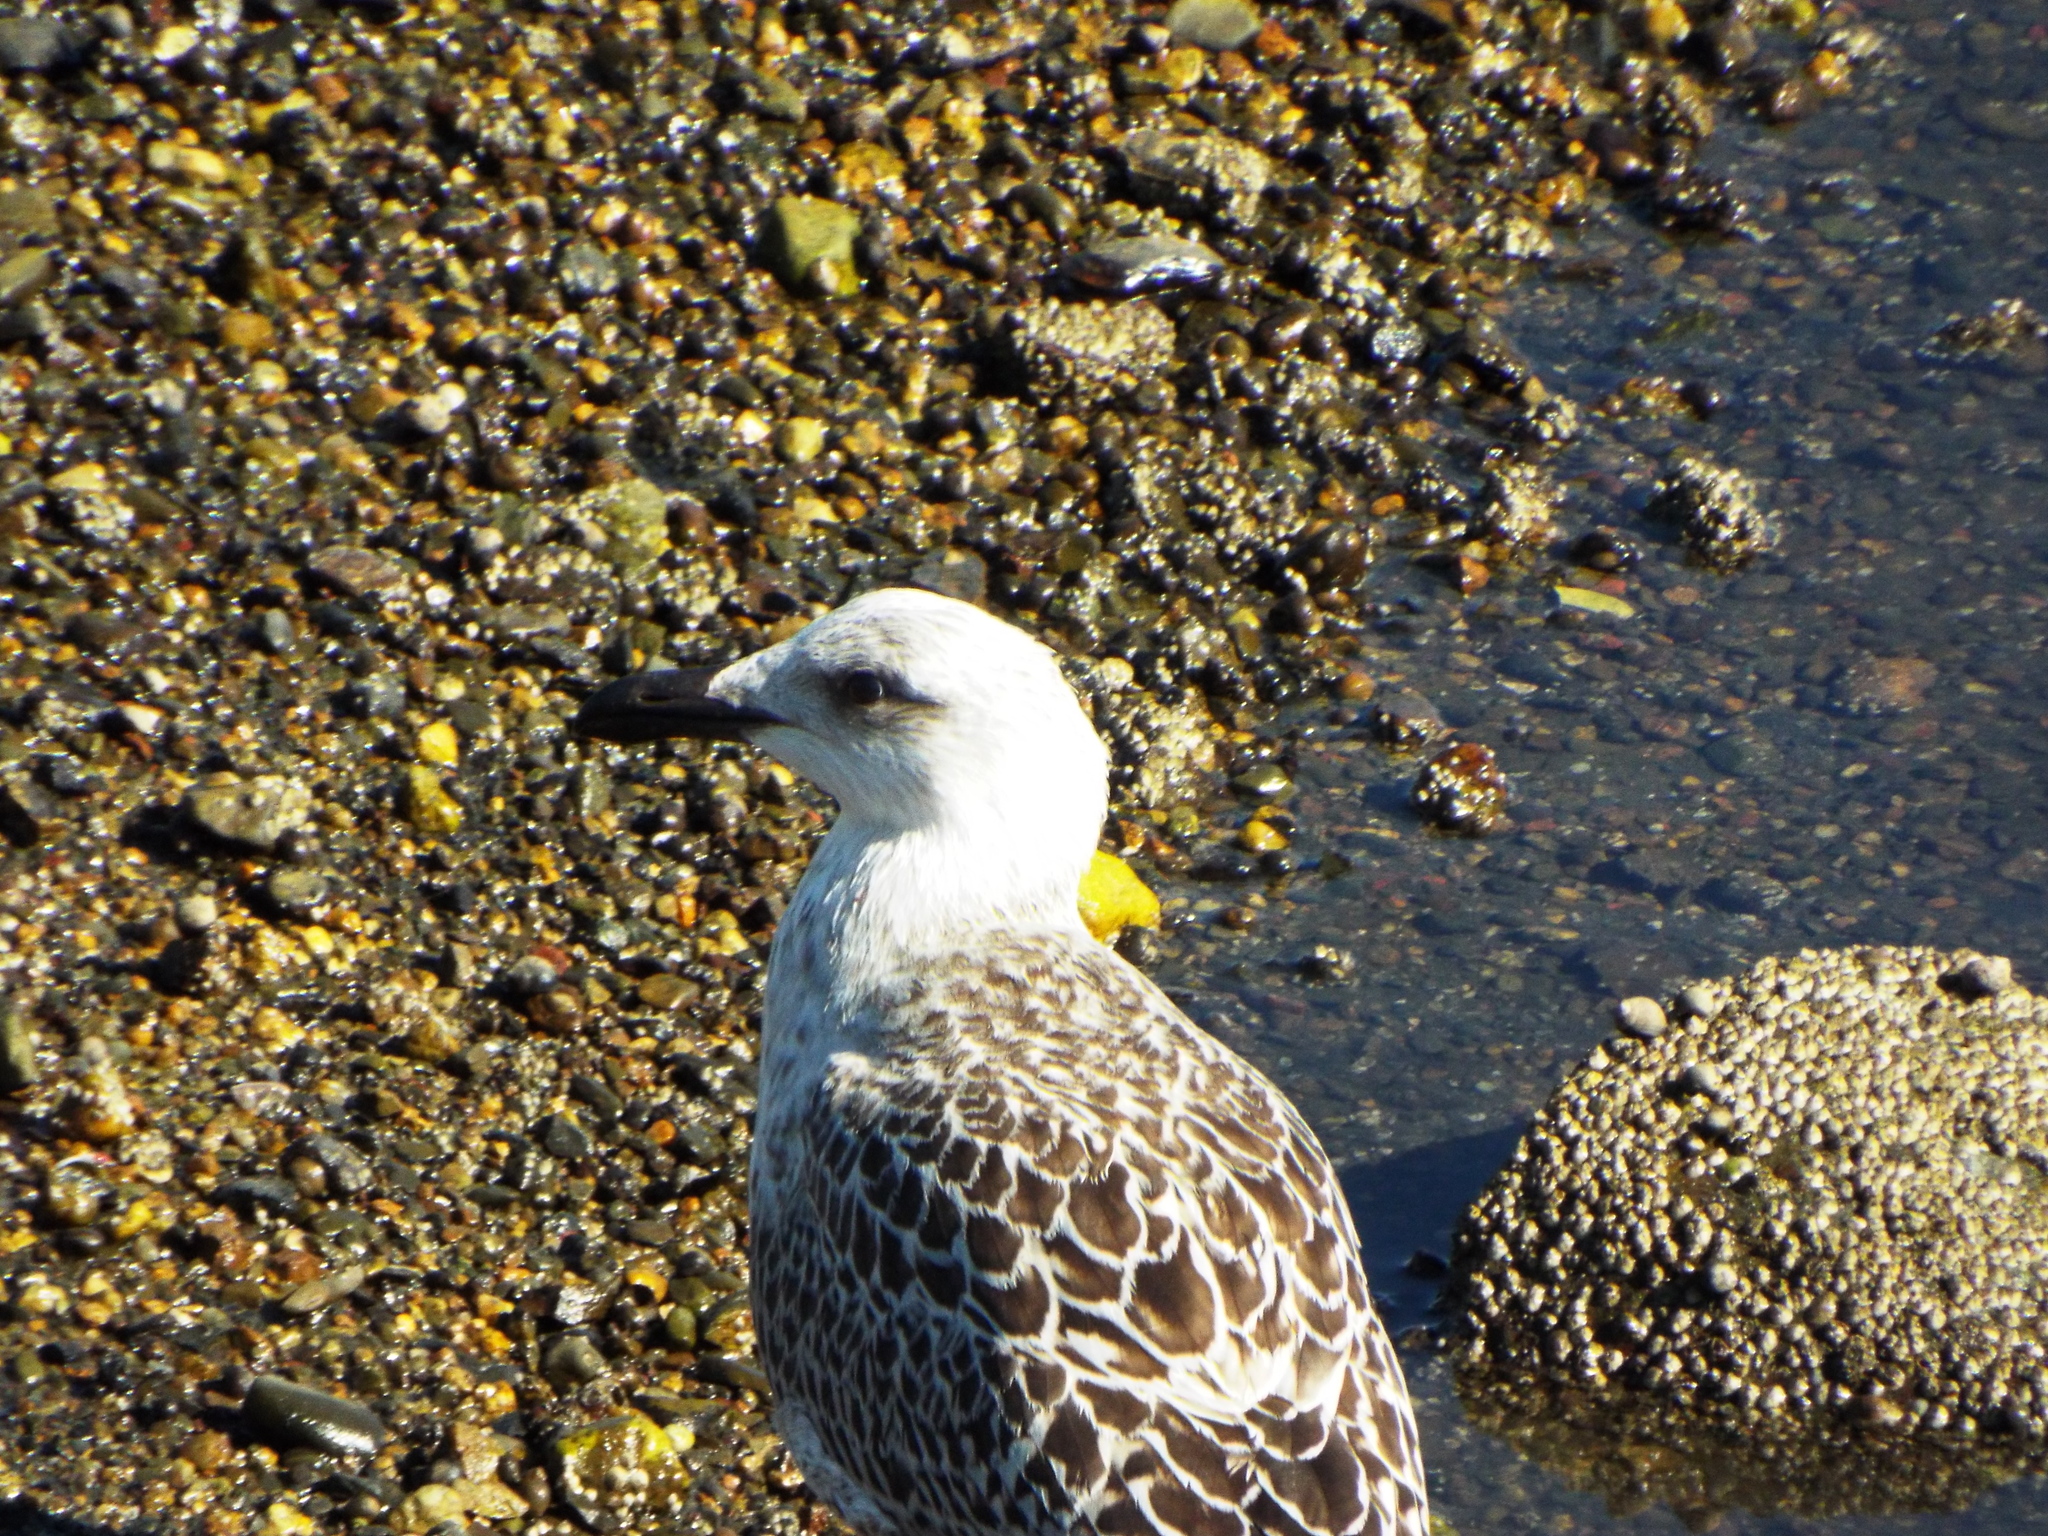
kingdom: Animalia
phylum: Chordata
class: Aves
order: Charadriiformes
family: Laridae
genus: Larus
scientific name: Larus marinus
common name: Great black-backed gull
